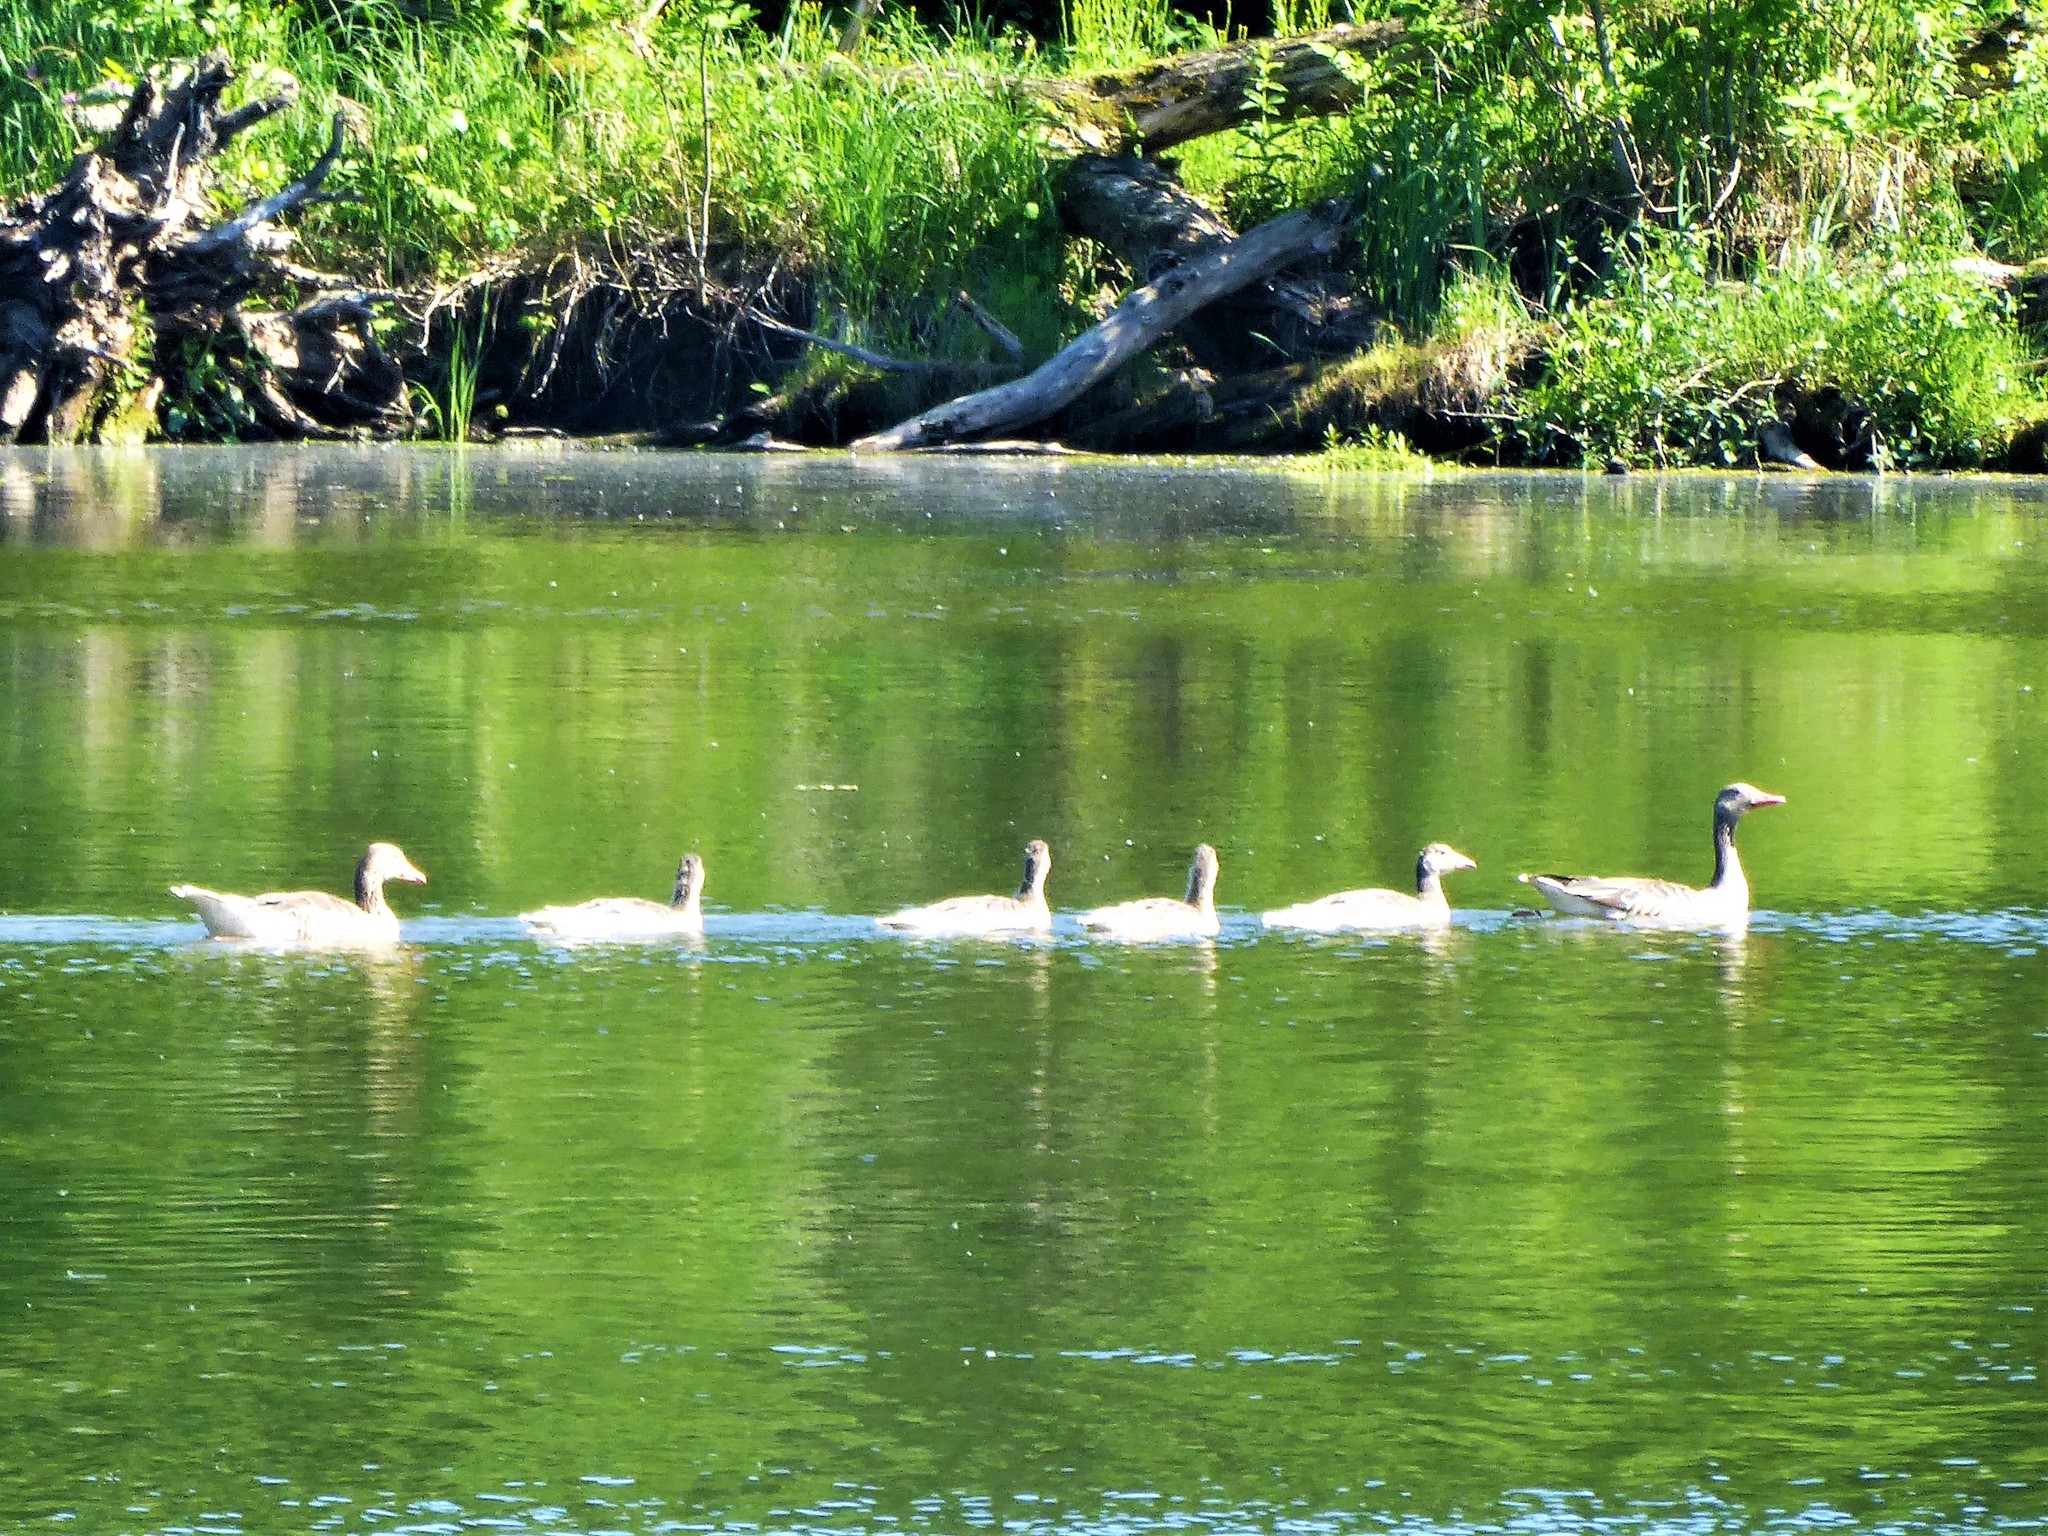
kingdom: Animalia
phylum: Chordata
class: Aves
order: Anseriformes
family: Anatidae
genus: Anser
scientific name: Anser anser
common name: Greylag goose
